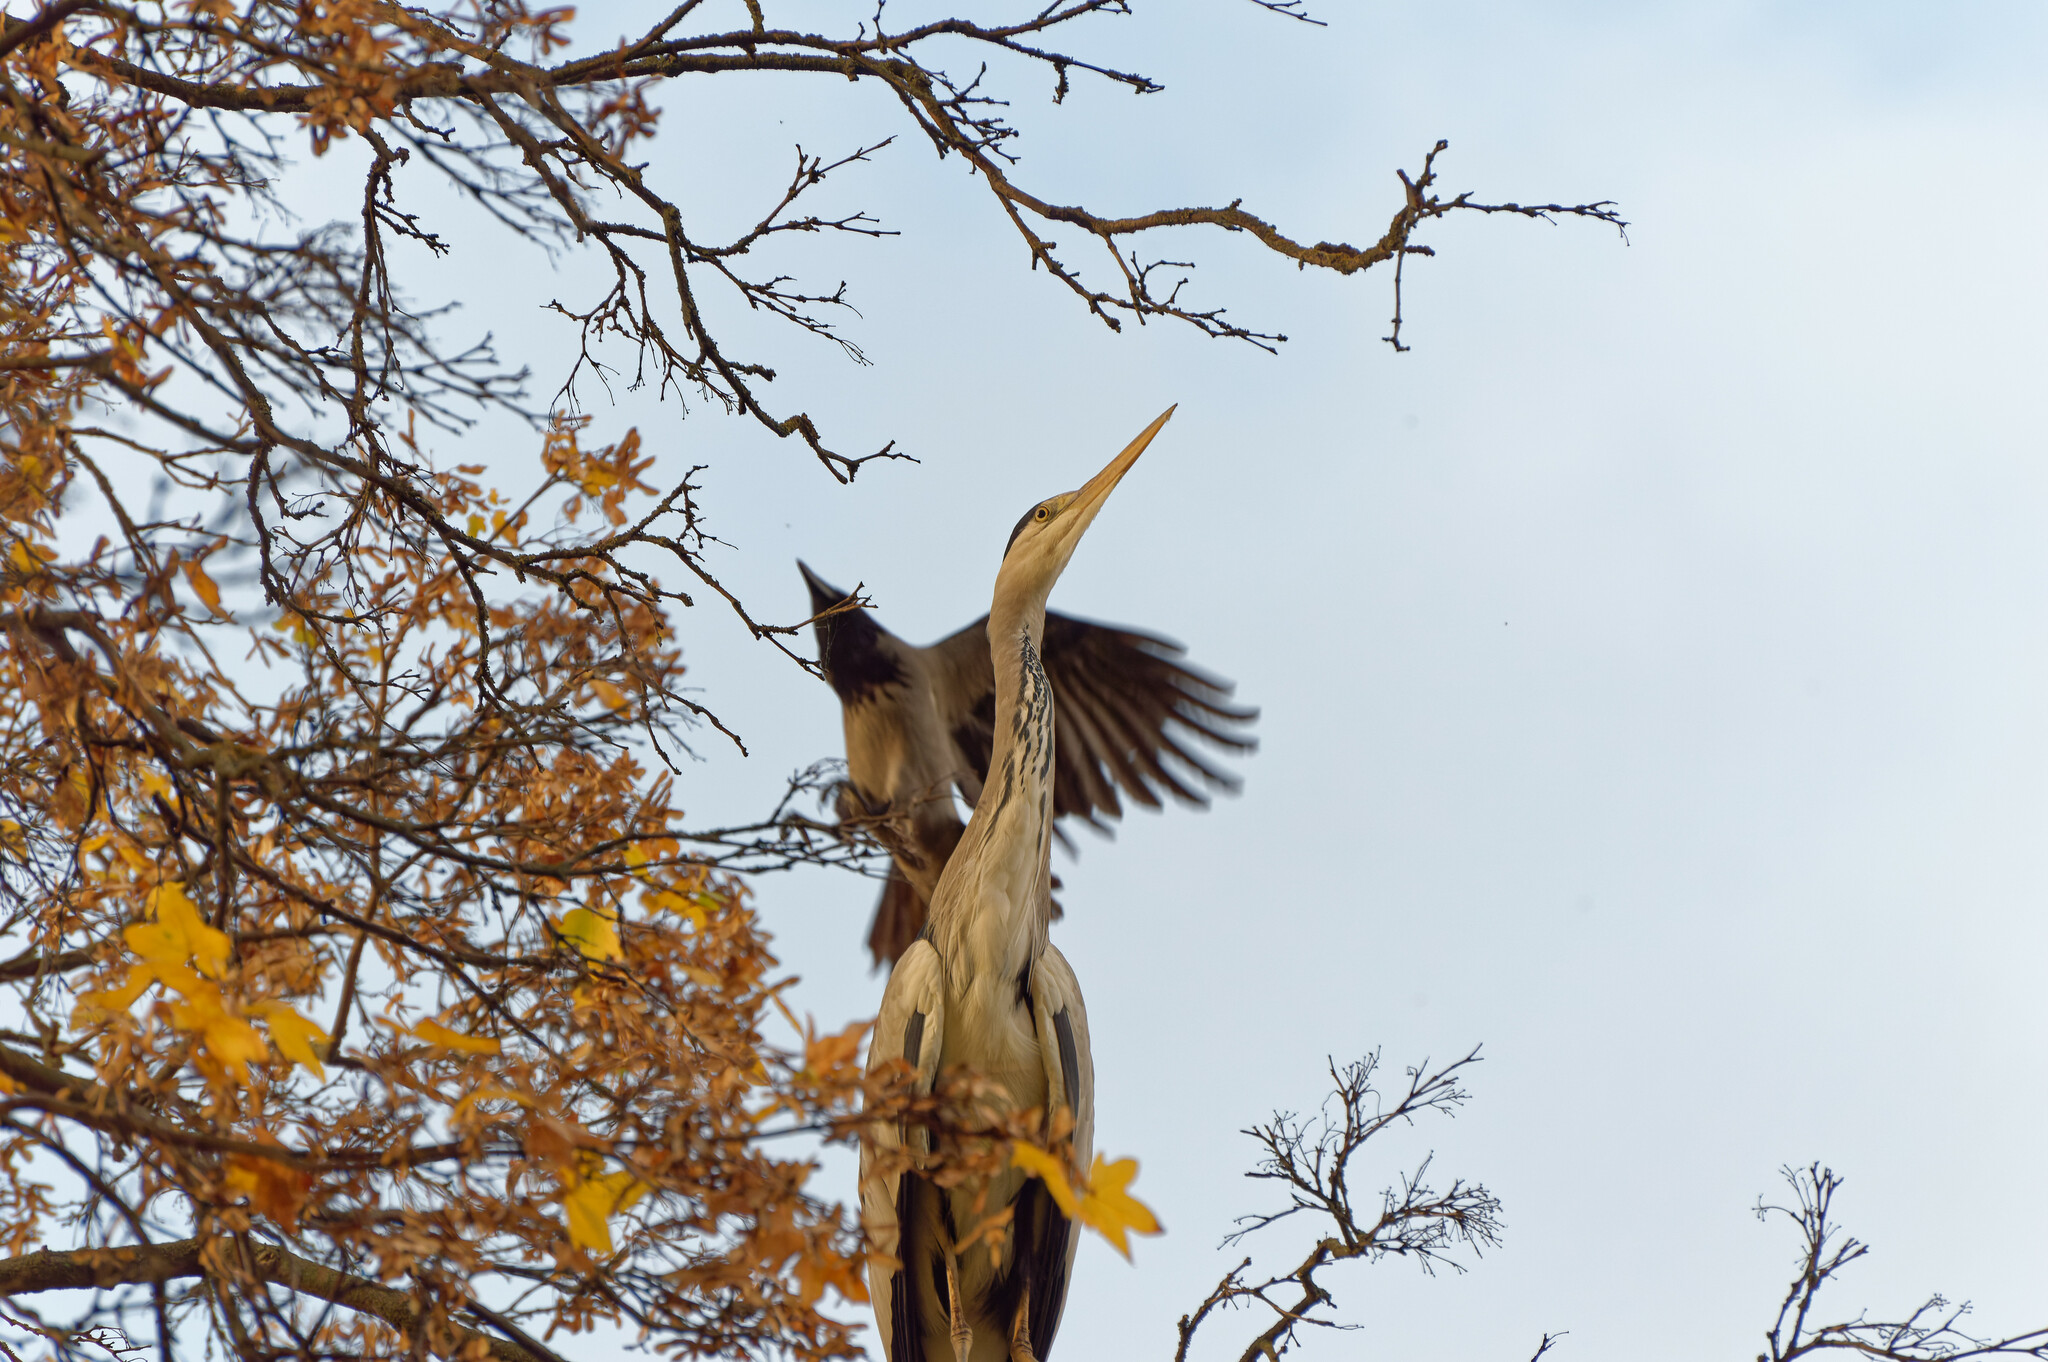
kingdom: Animalia
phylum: Chordata
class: Aves
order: Pelecaniformes
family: Ardeidae
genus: Ardea
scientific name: Ardea cinerea
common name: Grey heron
